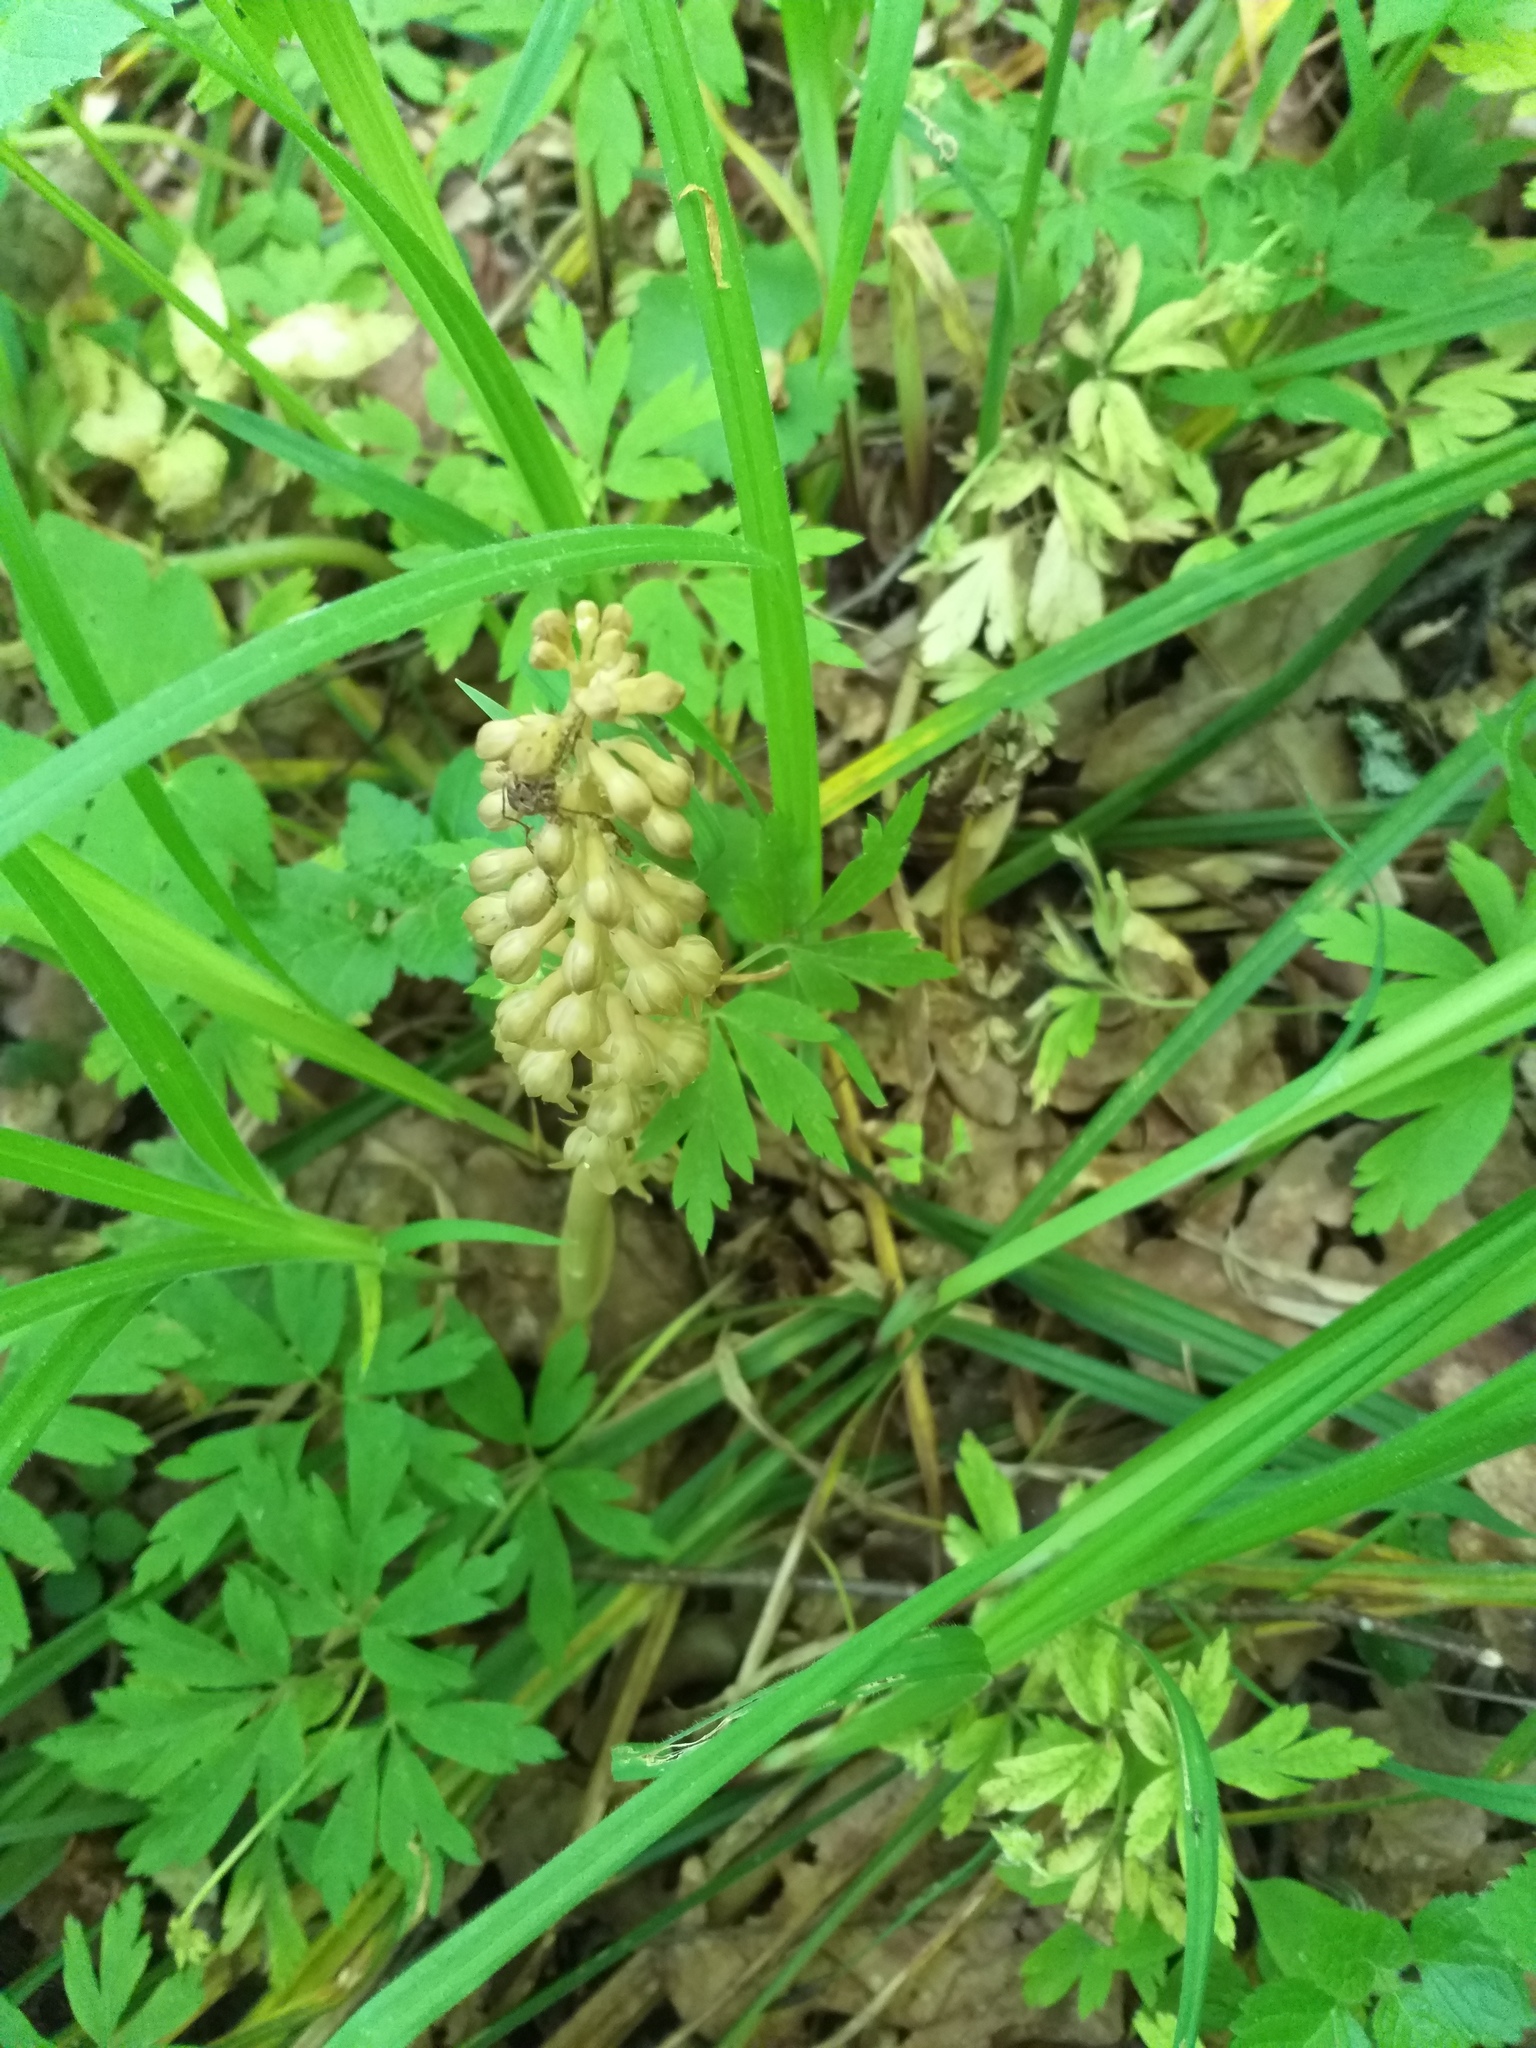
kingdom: Plantae
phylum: Tracheophyta
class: Liliopsida
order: Asparagales
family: Orchidaceae
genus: Neottia
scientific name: Neottia nidus-avis
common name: Bird's-nest orchid
